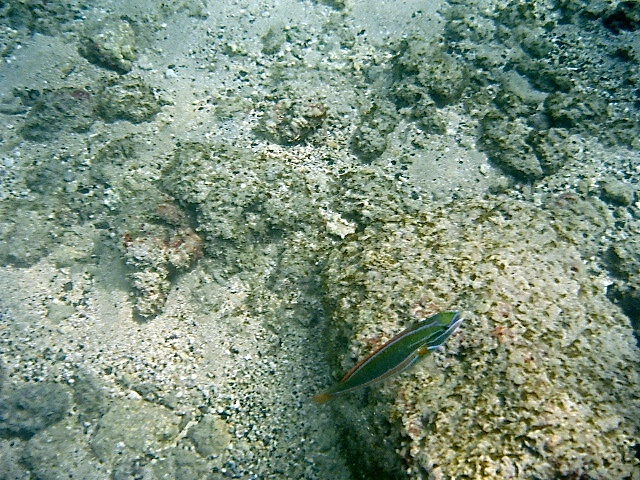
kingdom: Animalia
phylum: Chordata
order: Perciformes
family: Labridae
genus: Stethojulis
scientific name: Stethojulis balteata
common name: Belted wrasse
